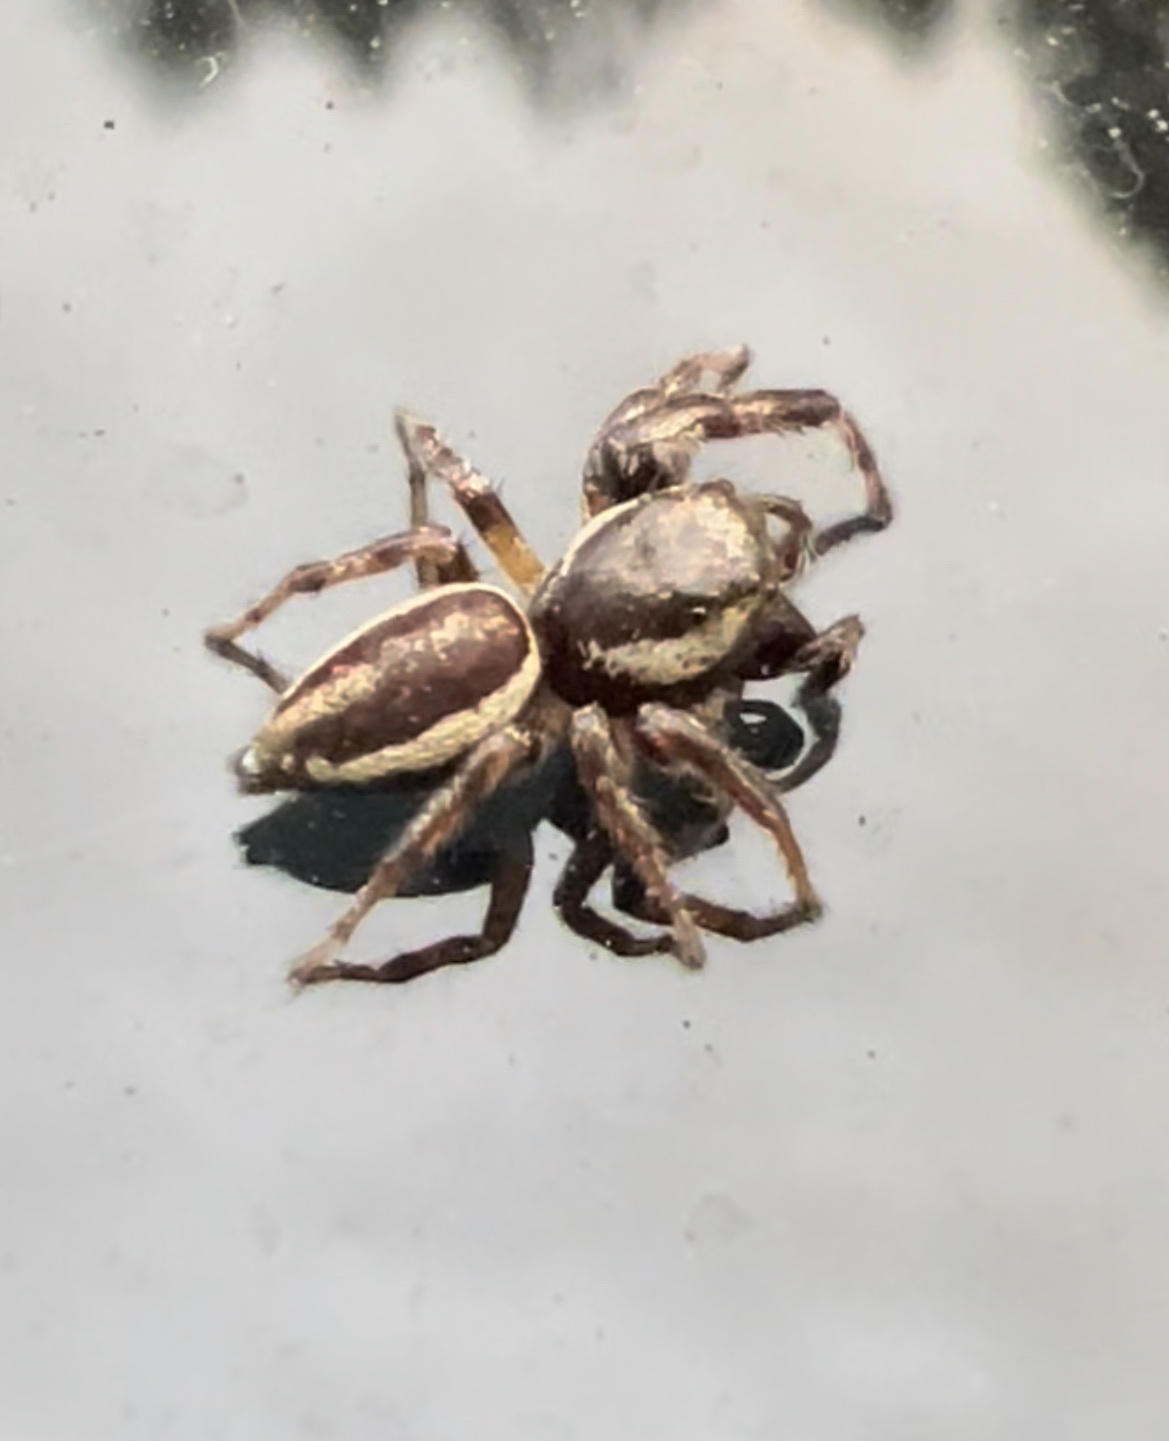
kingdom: Animalia
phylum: Arthropoda
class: Arachnida
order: Araneae
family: Salticidae
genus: Eris
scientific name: Eris militaris
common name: Bronze jumper
